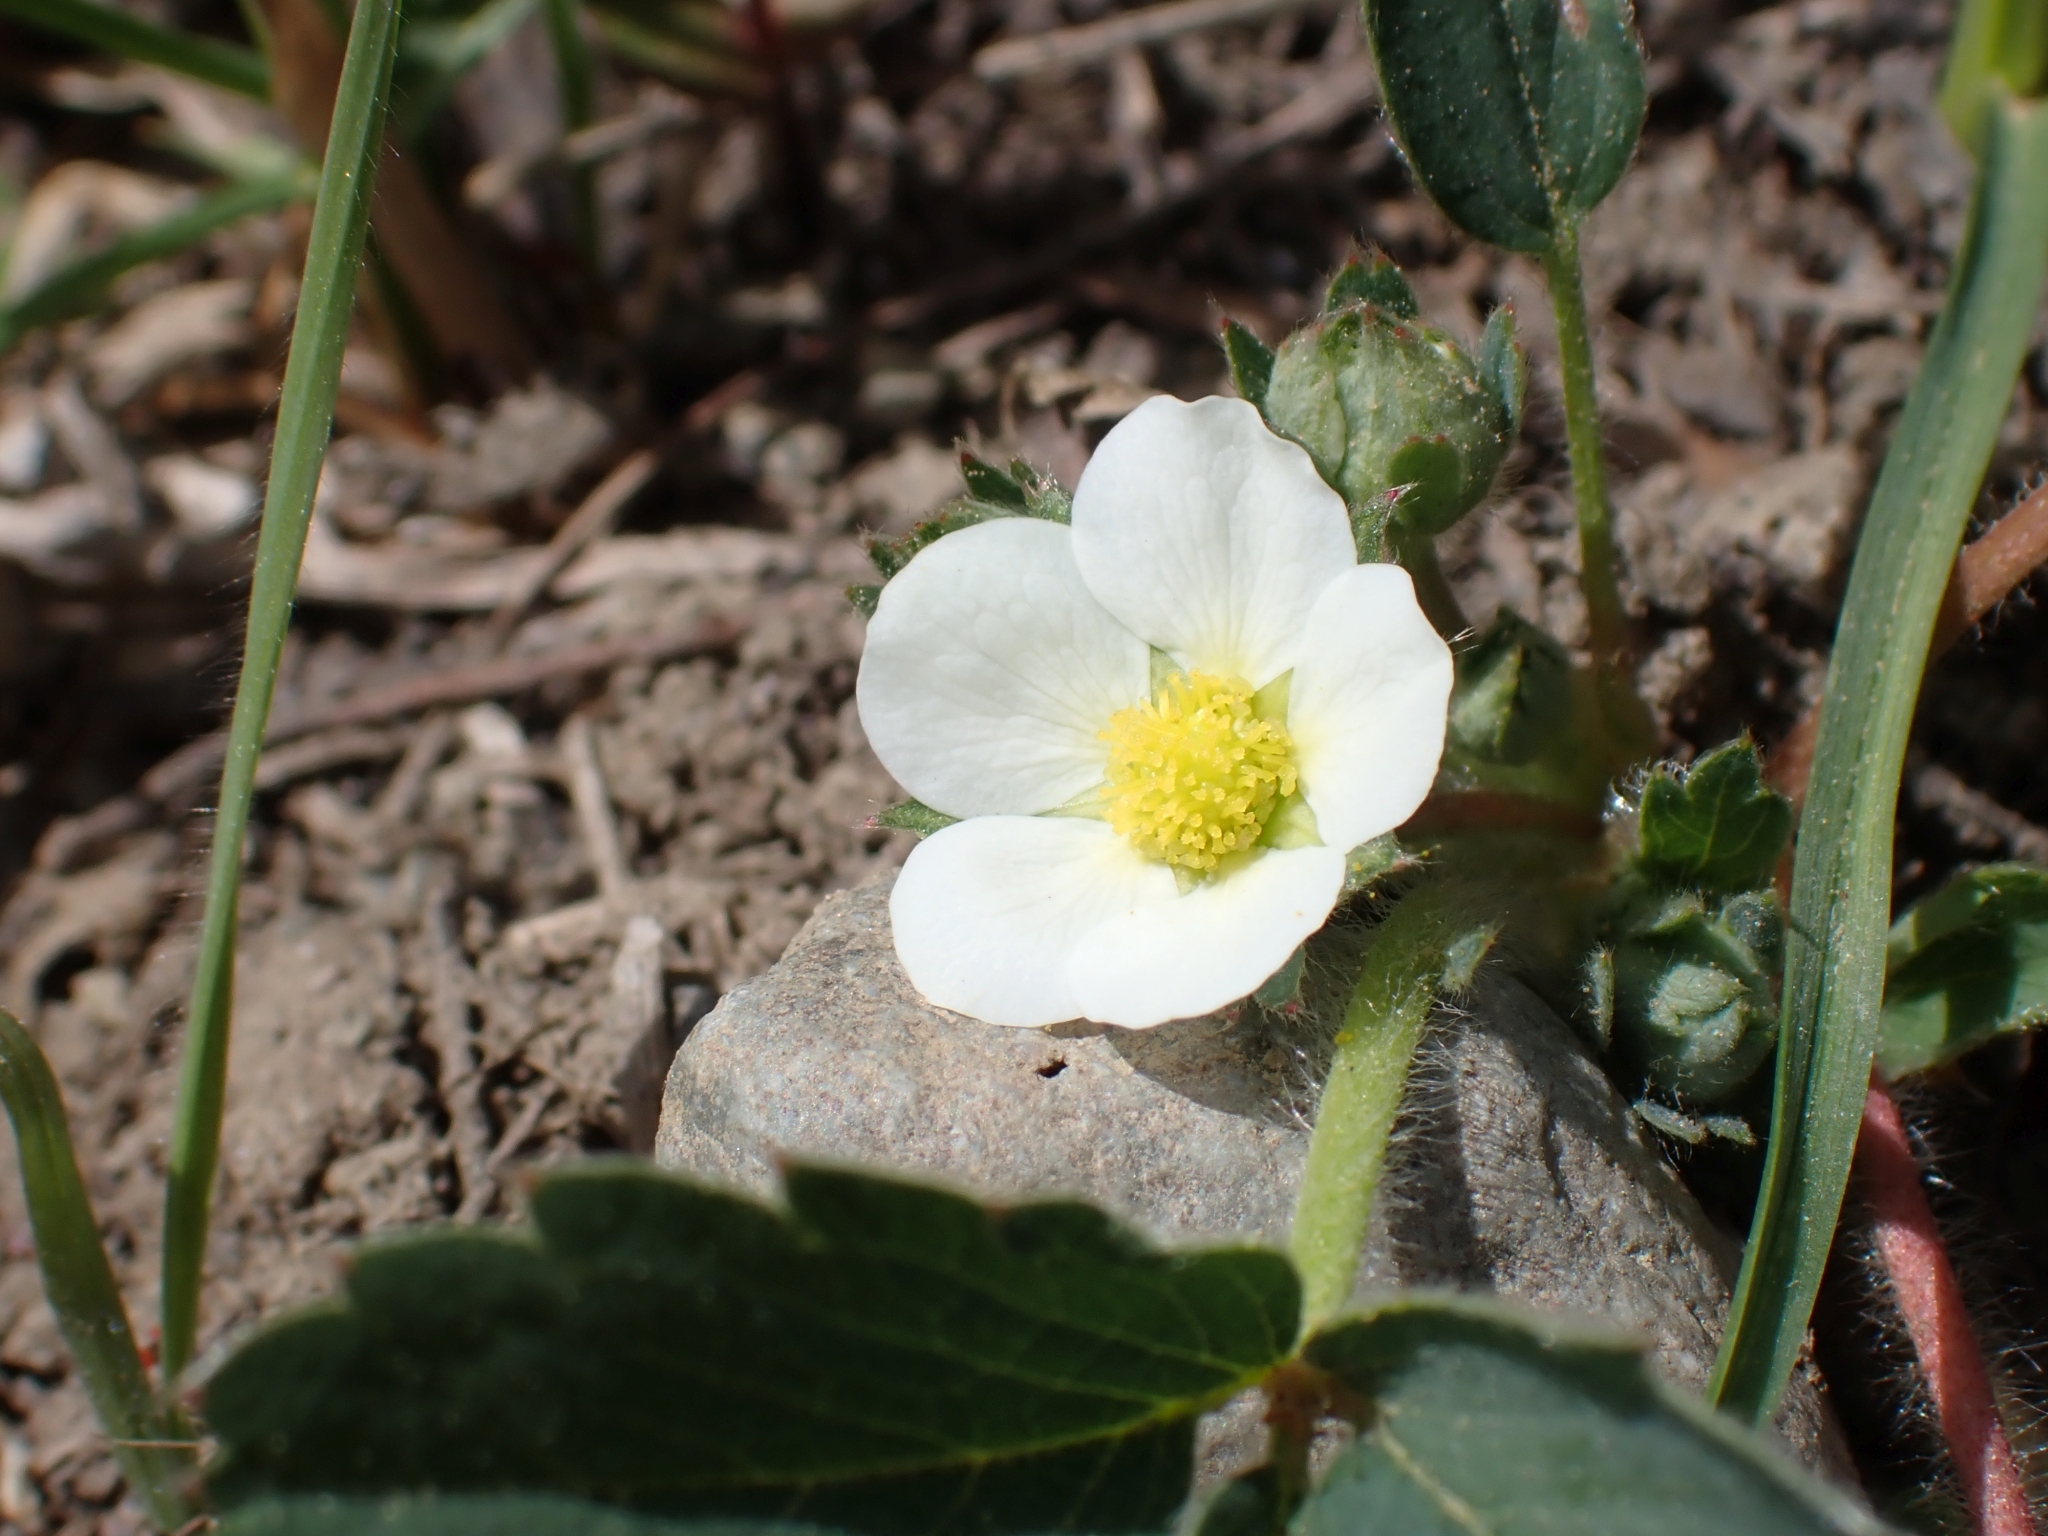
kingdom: Plantae
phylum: Tracheophyta
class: Magnoliopsida
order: Rosales
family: Rosaceae
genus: Fragaria
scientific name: Fragaria virginiana
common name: Thickleaved wild strawberry
